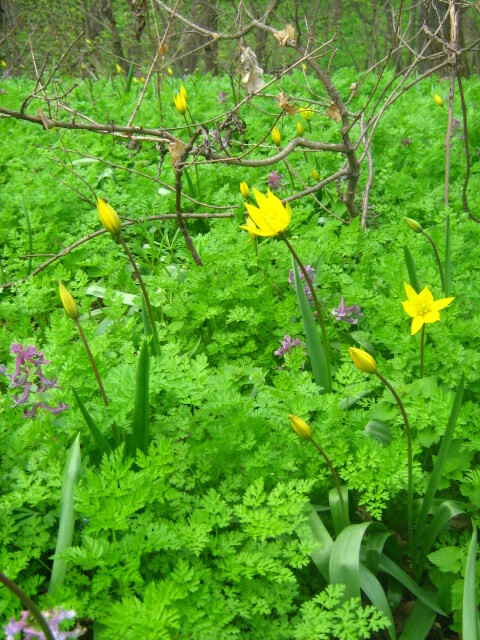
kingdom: Plantae
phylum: Tracheophyta
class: Liliopsida
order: Liliales
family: Liliaceae
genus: Tulipa
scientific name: Tulipa sylvestris
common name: Wild tulip
